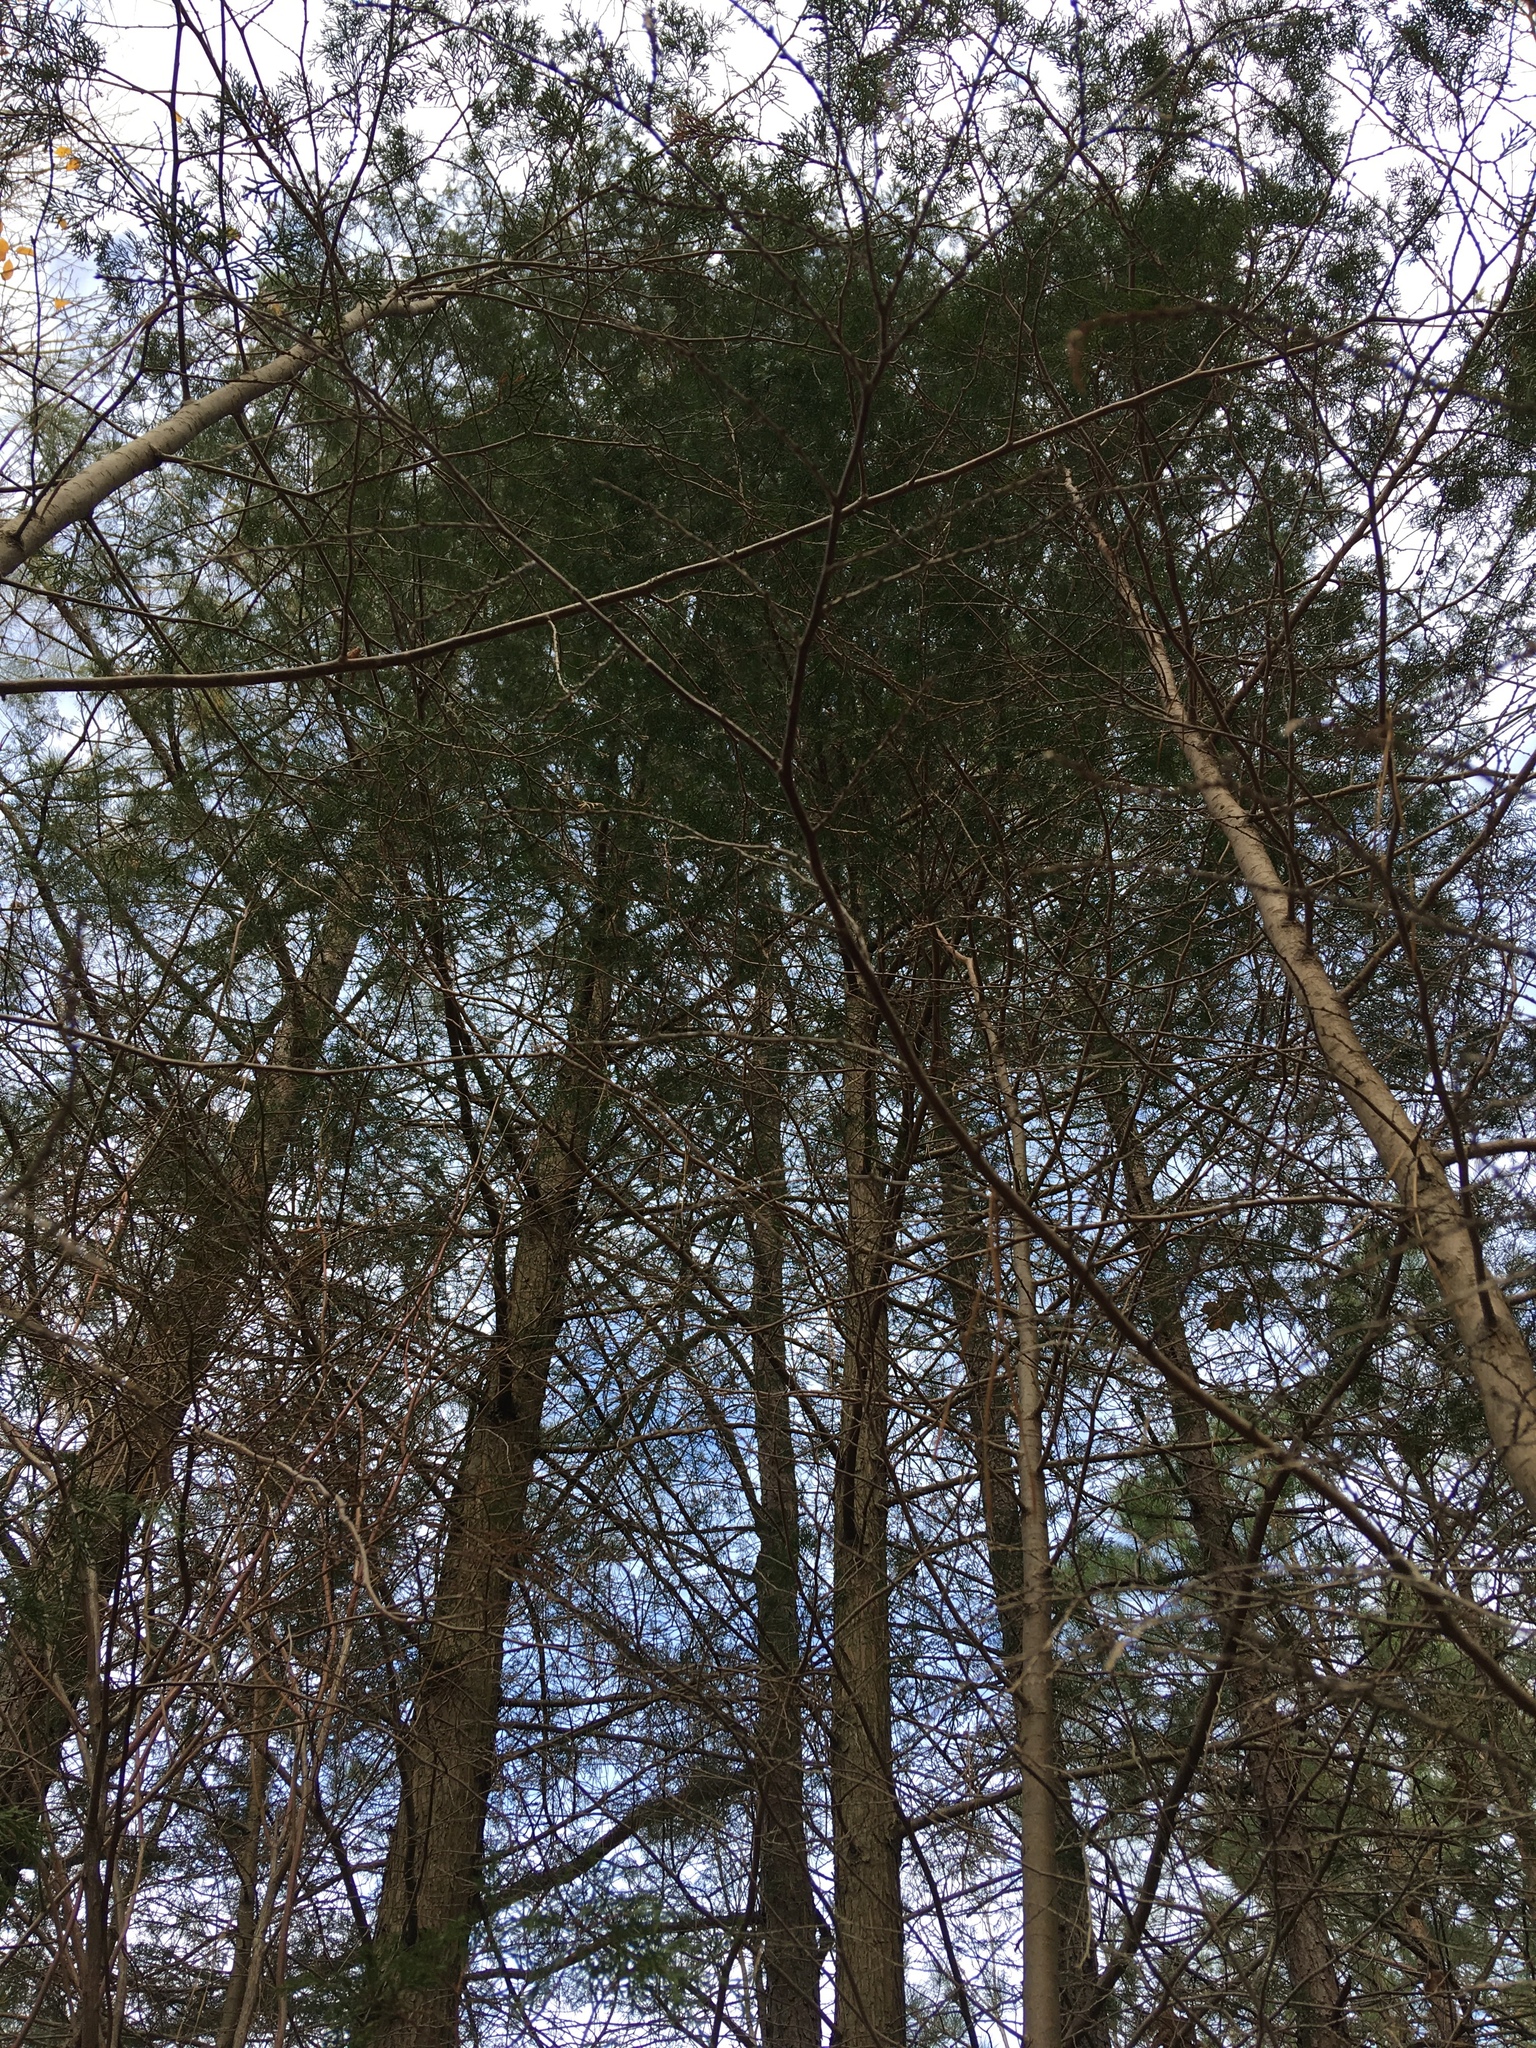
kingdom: Plantae
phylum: Tracheophyta
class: Pinopsida
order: Pinales
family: Cupressaceae
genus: Chamaecyparis
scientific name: Chamaecyparis thyoides
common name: Atlantic white cedar
